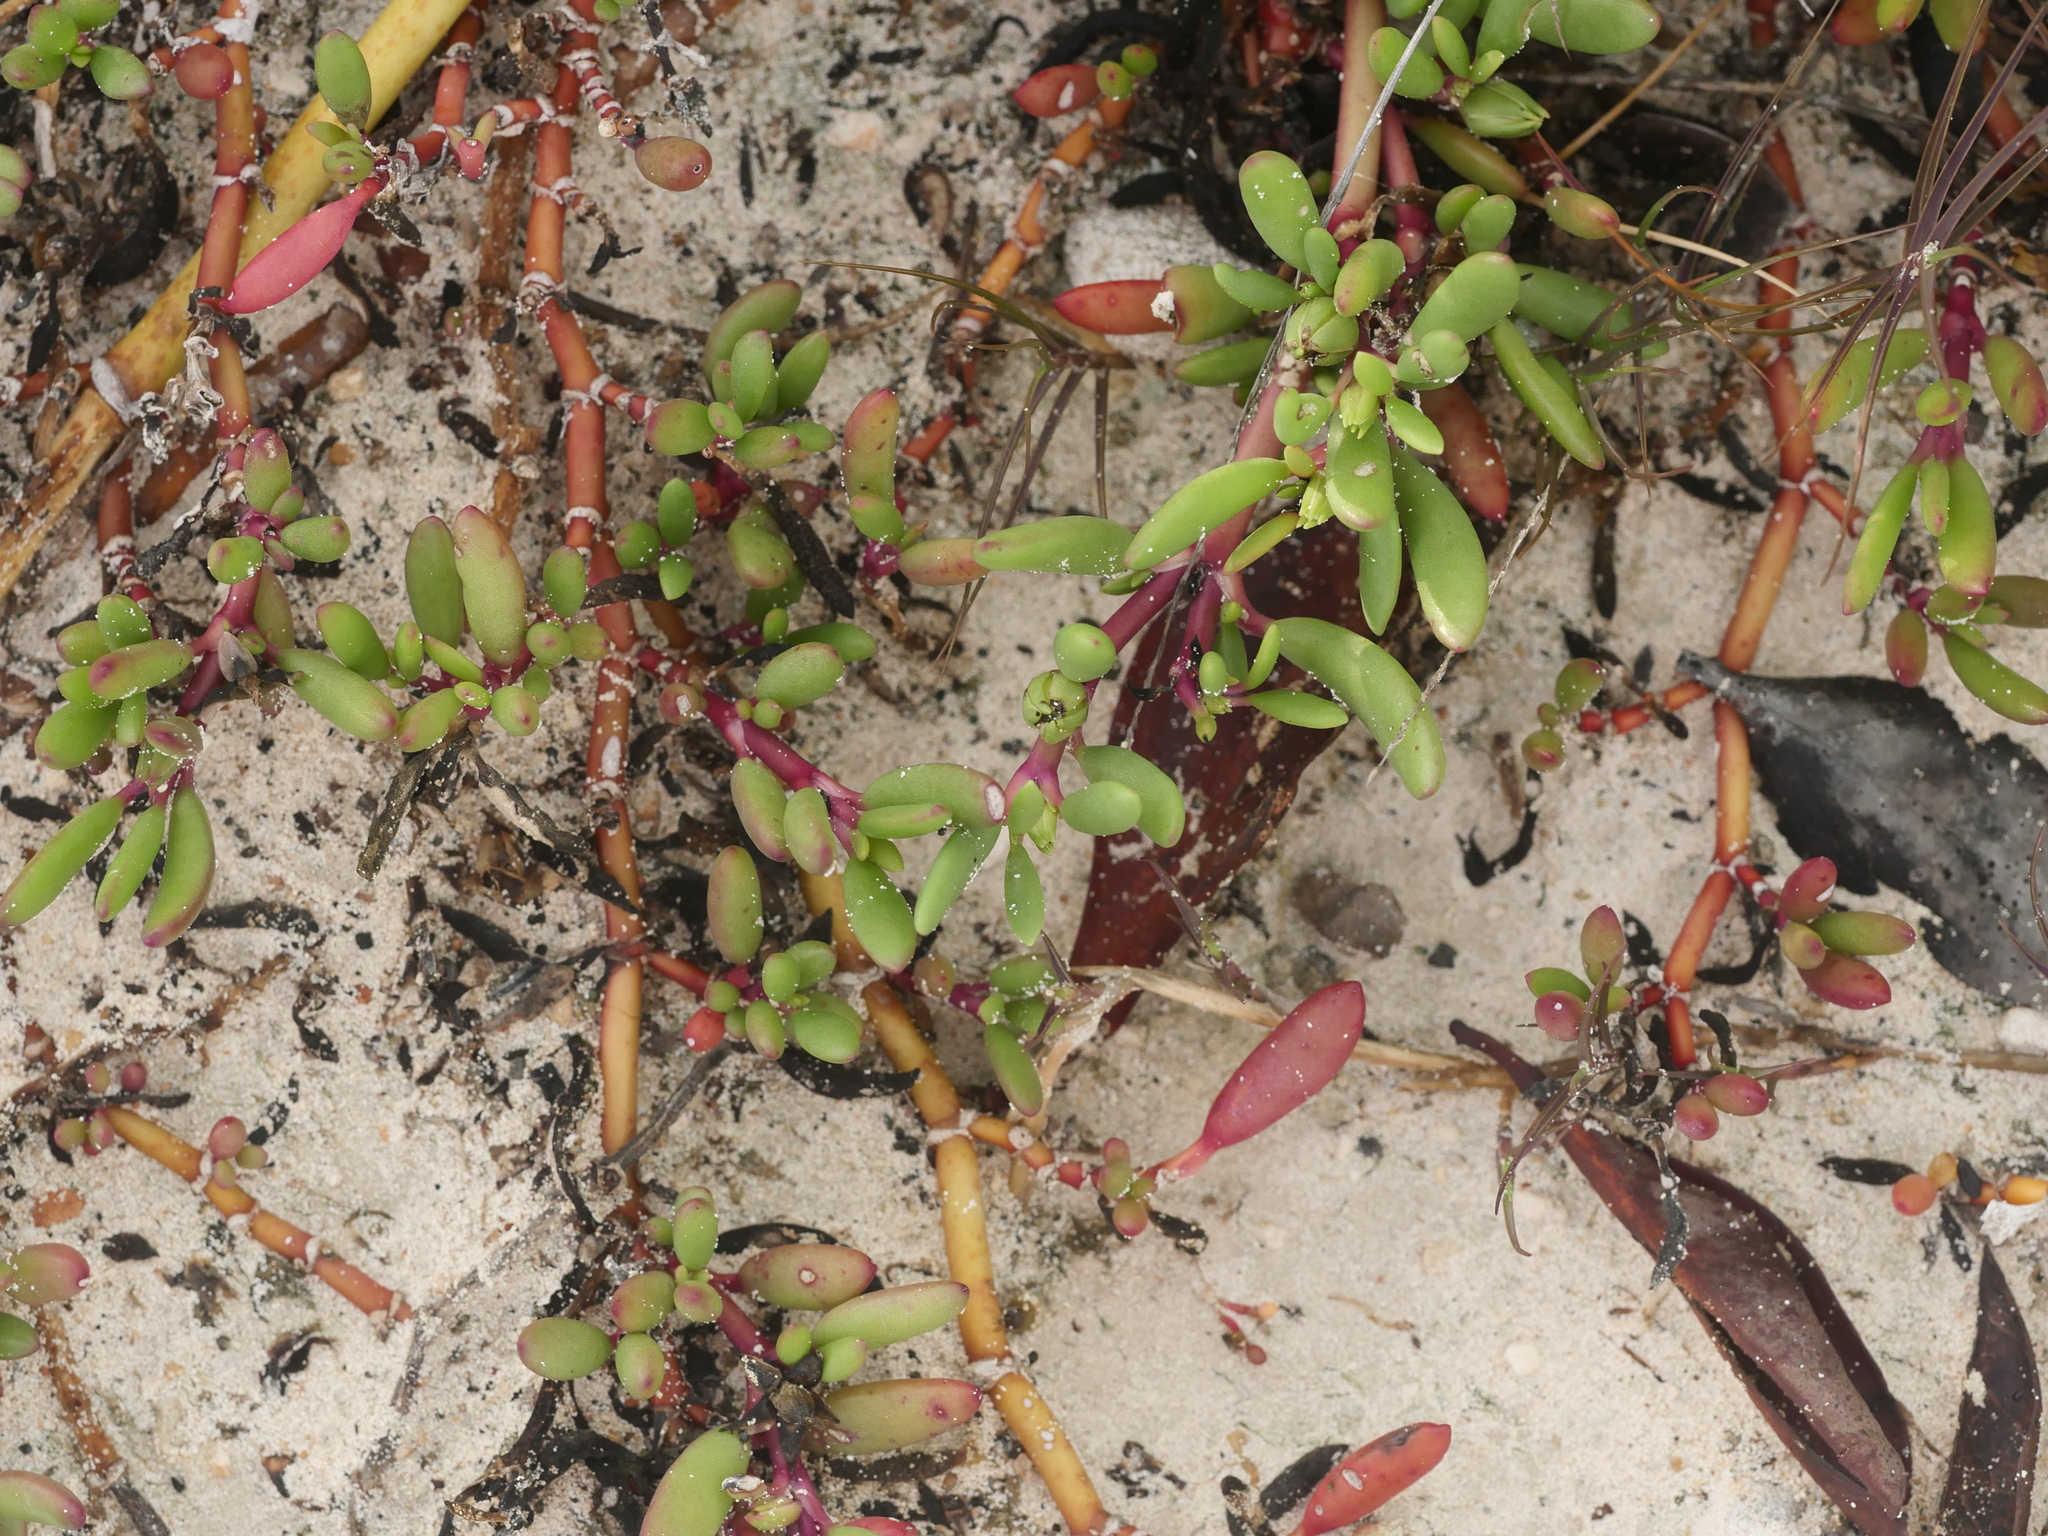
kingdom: Plantae
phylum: Tracheophyta
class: Magnoliopsida
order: Caryophyllales
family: Aizoaceae
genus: Sesuvium
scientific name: Sesuvium portulacastrum
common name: Sea-purslane
